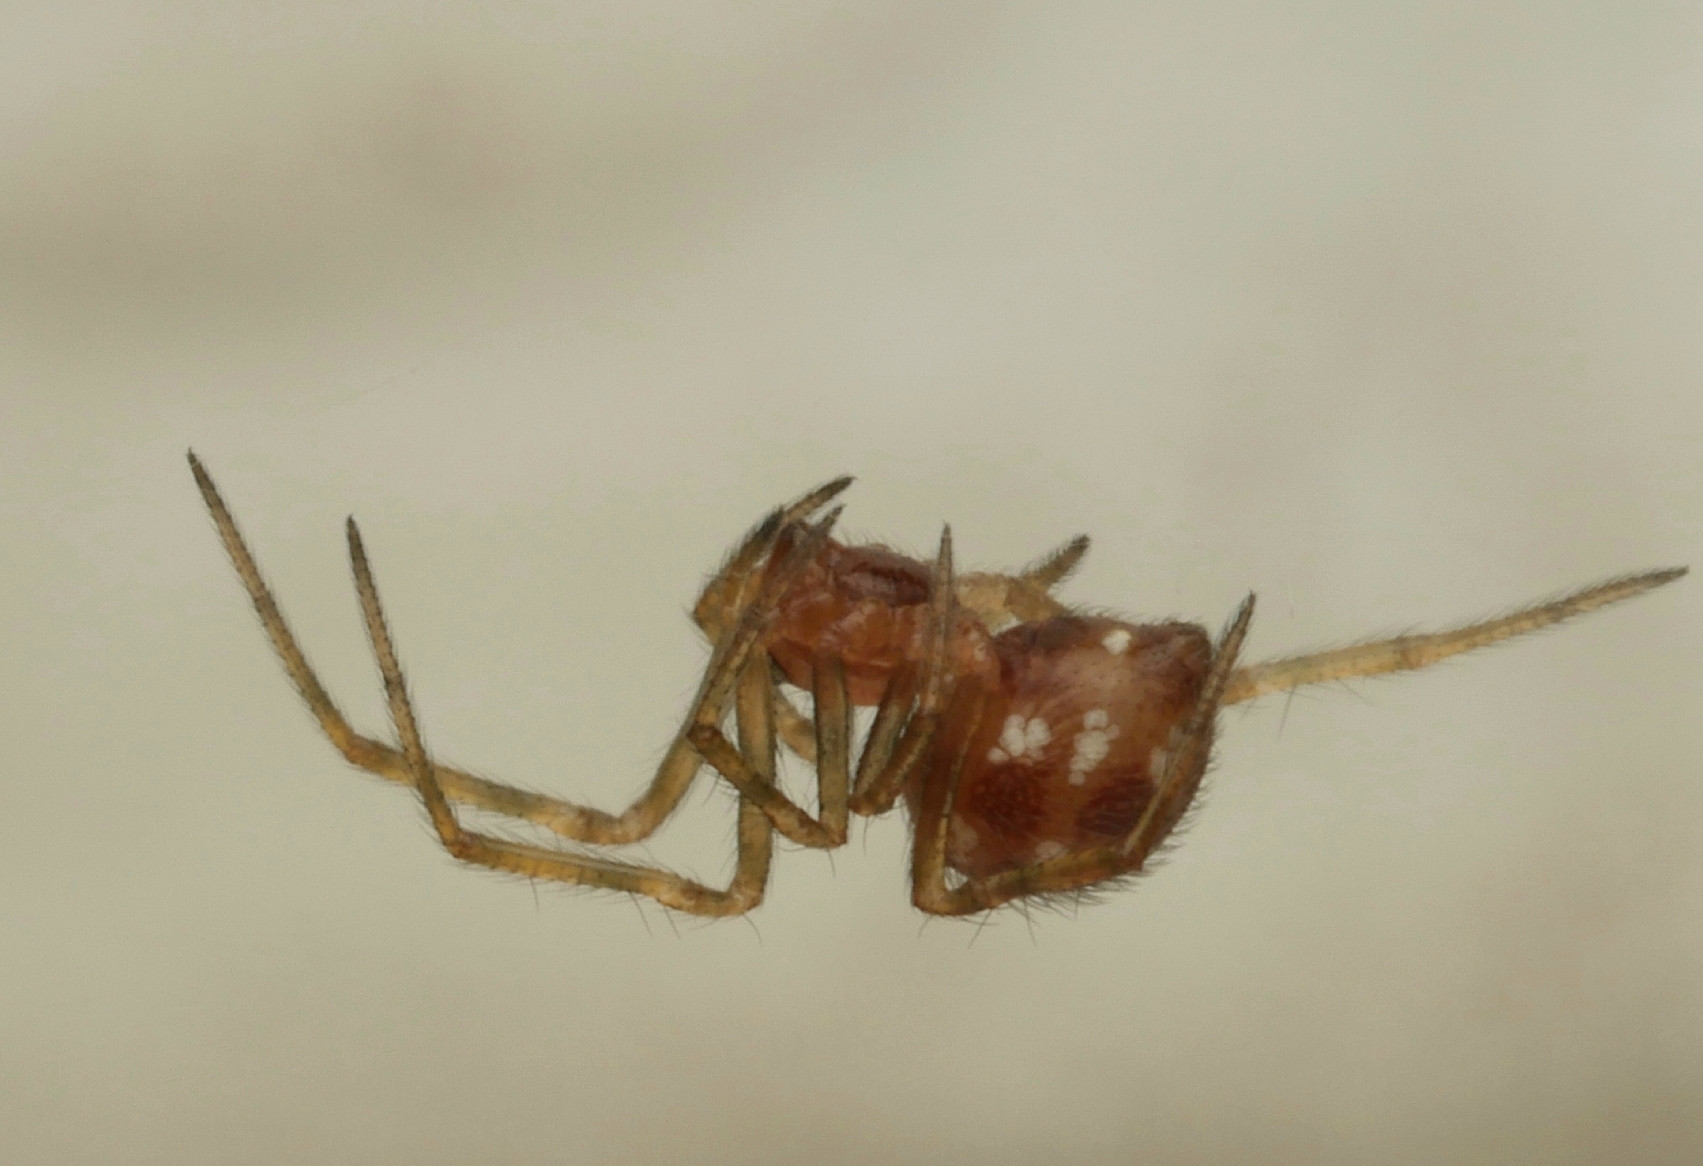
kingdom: Animalia
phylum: Arthropoda
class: Arachnida
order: Araneae
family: Theridiidae
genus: Steatoda
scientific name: Steatoda triangulosa
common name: Triangulate bud spider
